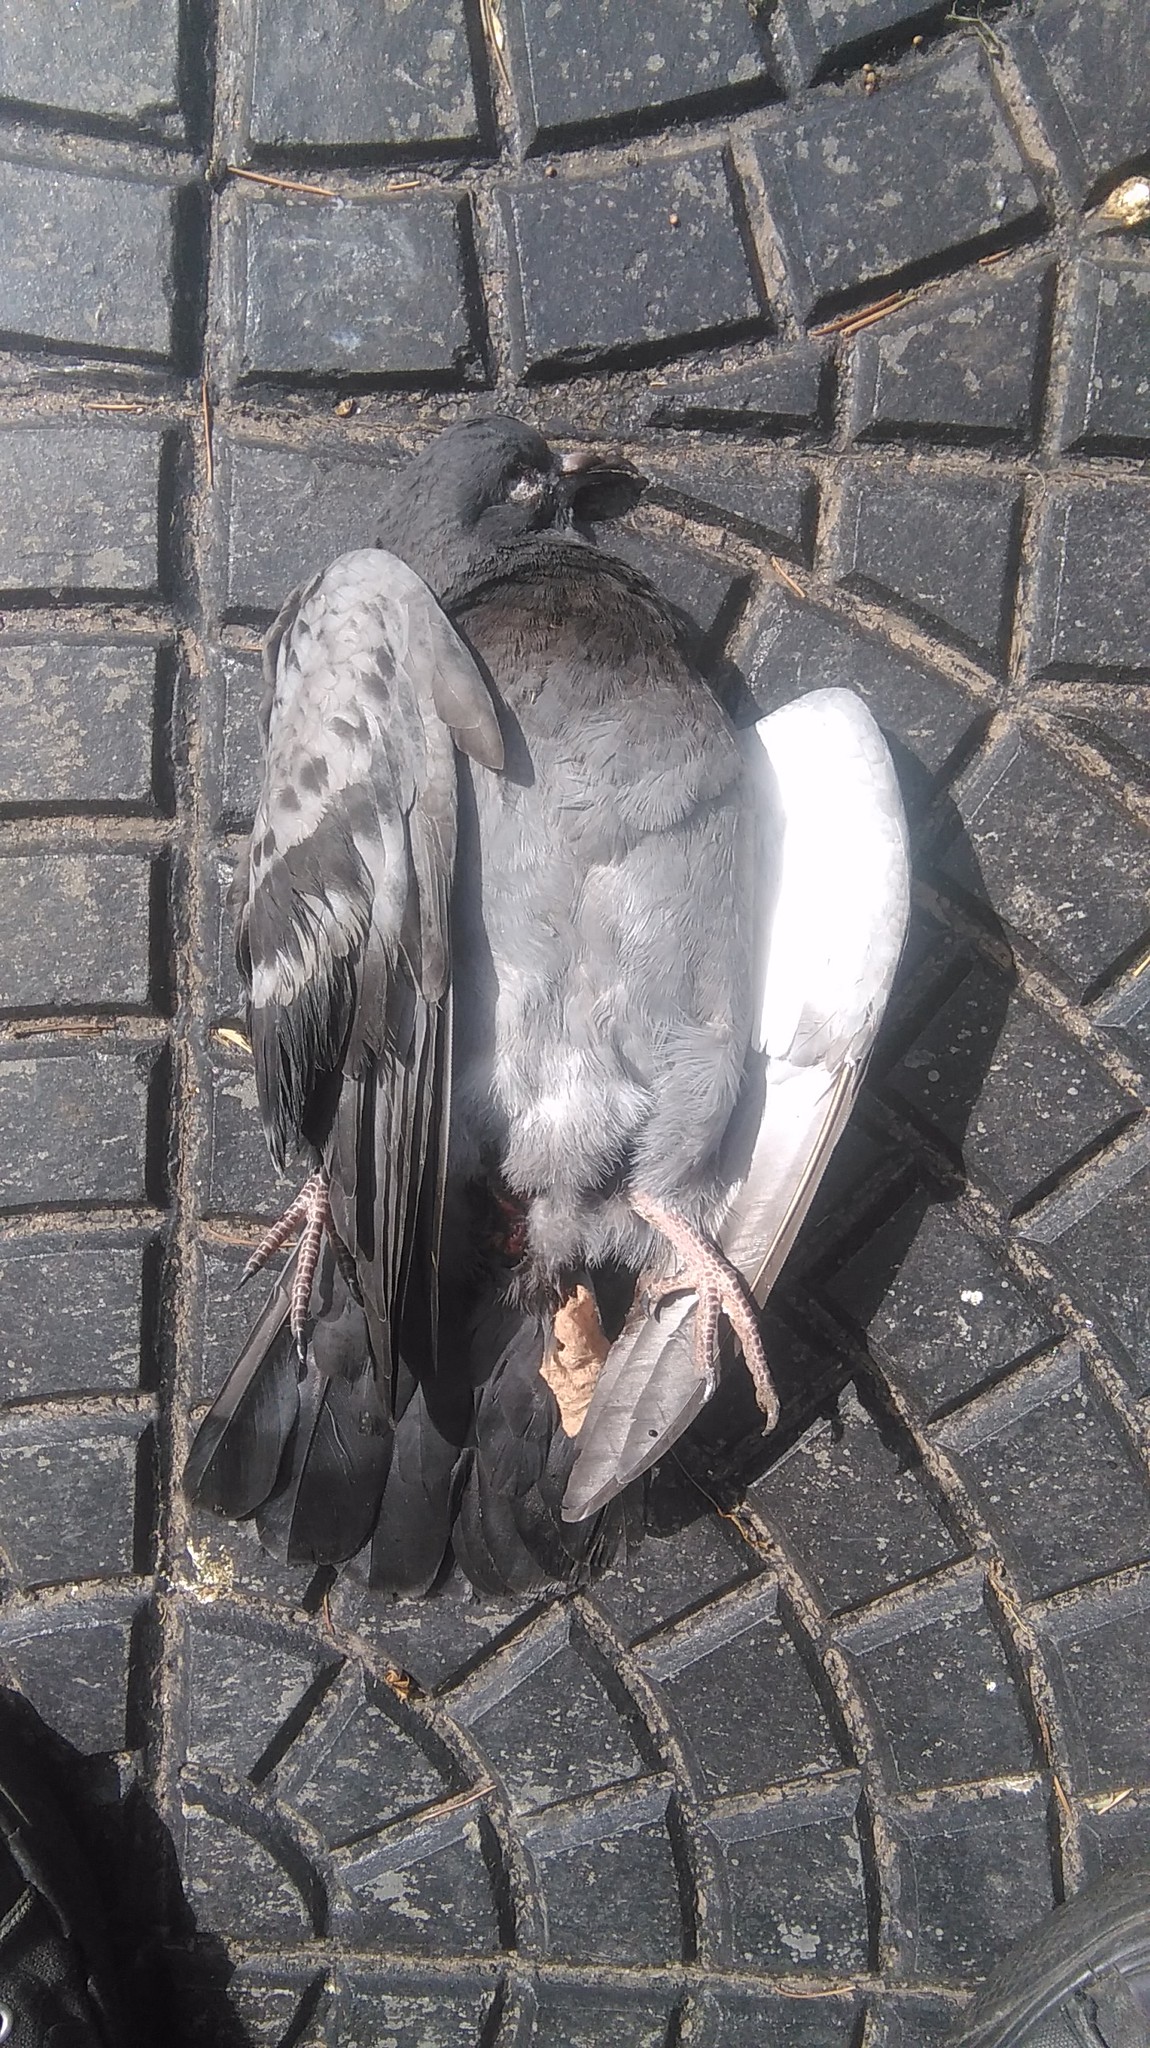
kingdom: Animalia
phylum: Chordata
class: Aves
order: Columbiformes
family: Columbidae
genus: Columba
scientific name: Columba livia
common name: Rock pigeon
